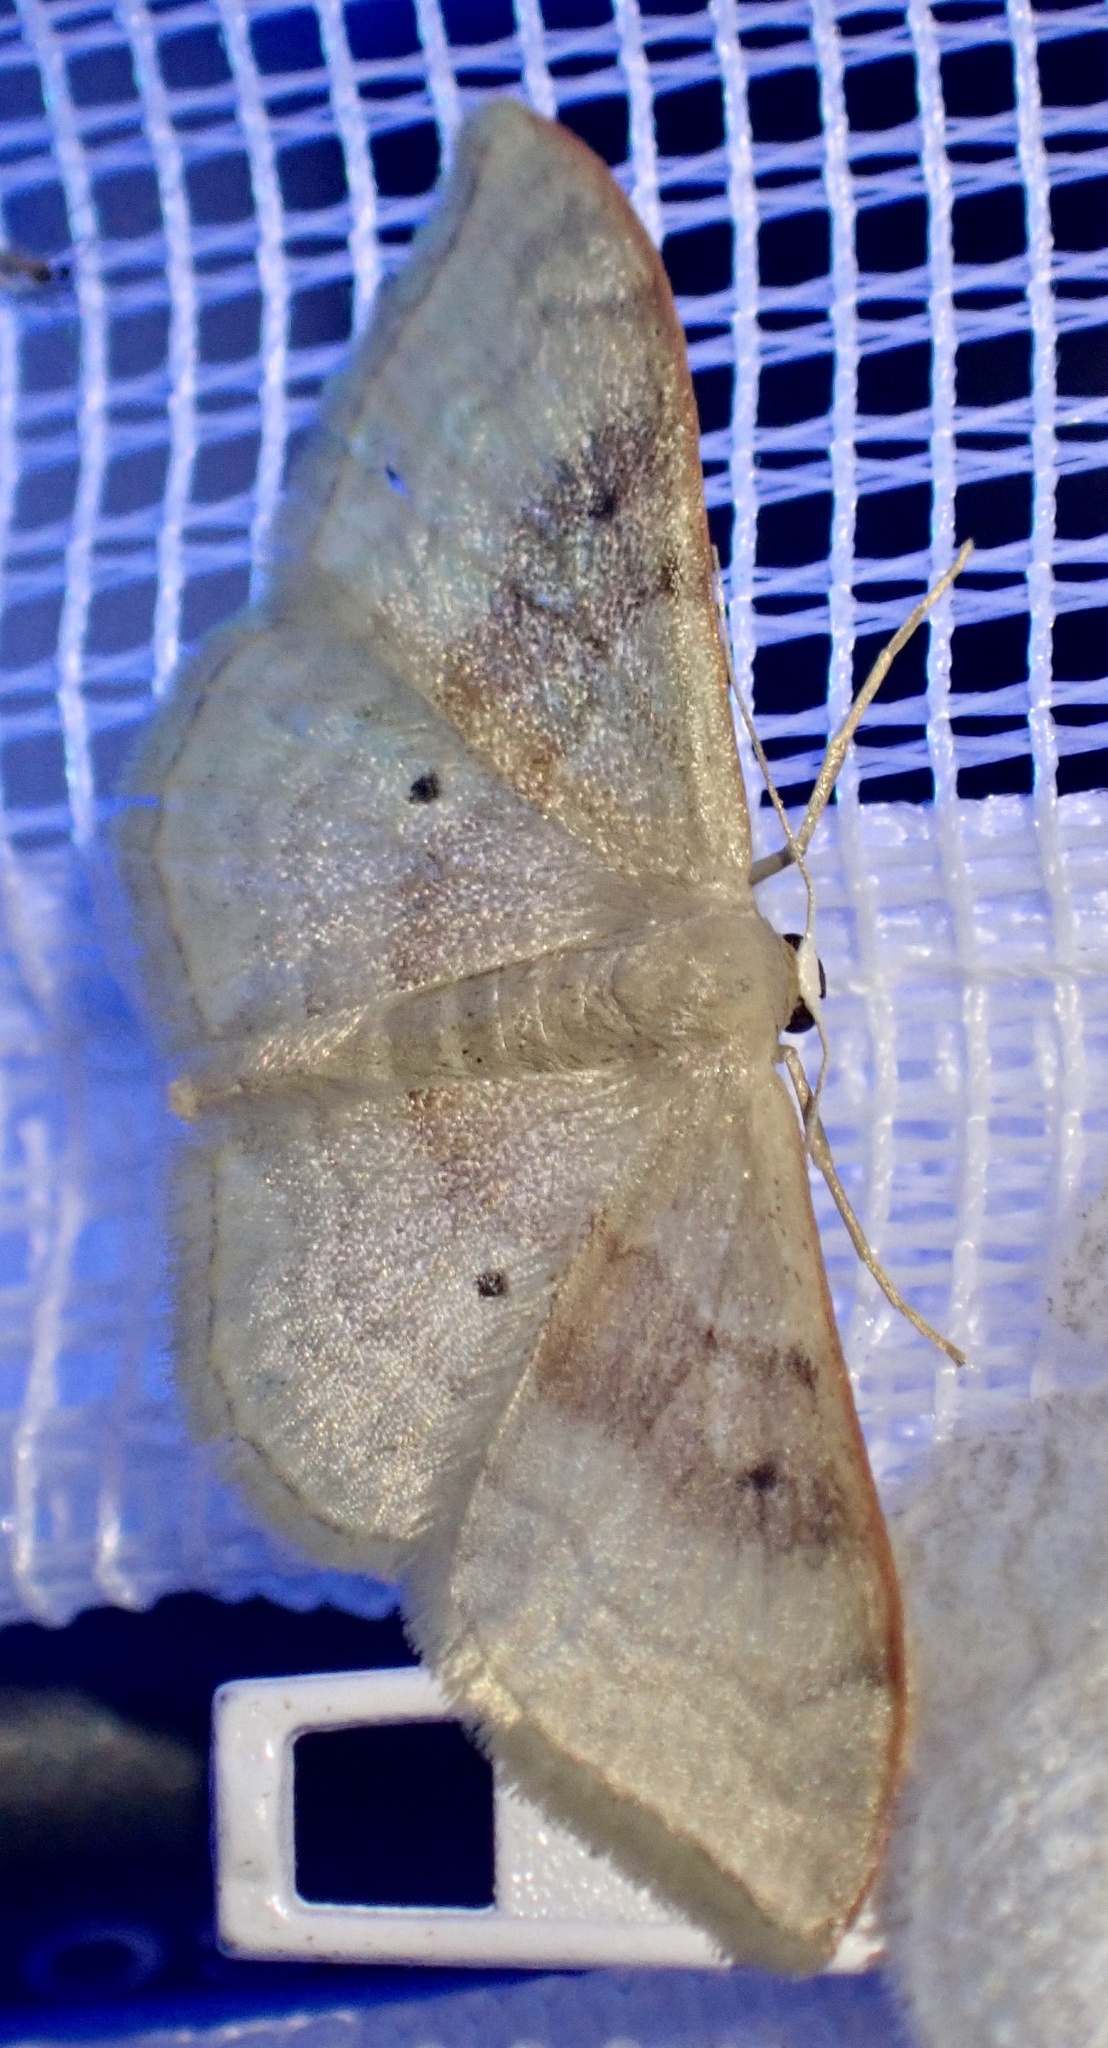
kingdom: Animalia
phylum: Arthropoda
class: Insecta
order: Lepidoptera
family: Geometridae
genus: Idaea
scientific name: Idaea degeneraria
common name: Portland ribbon wave
